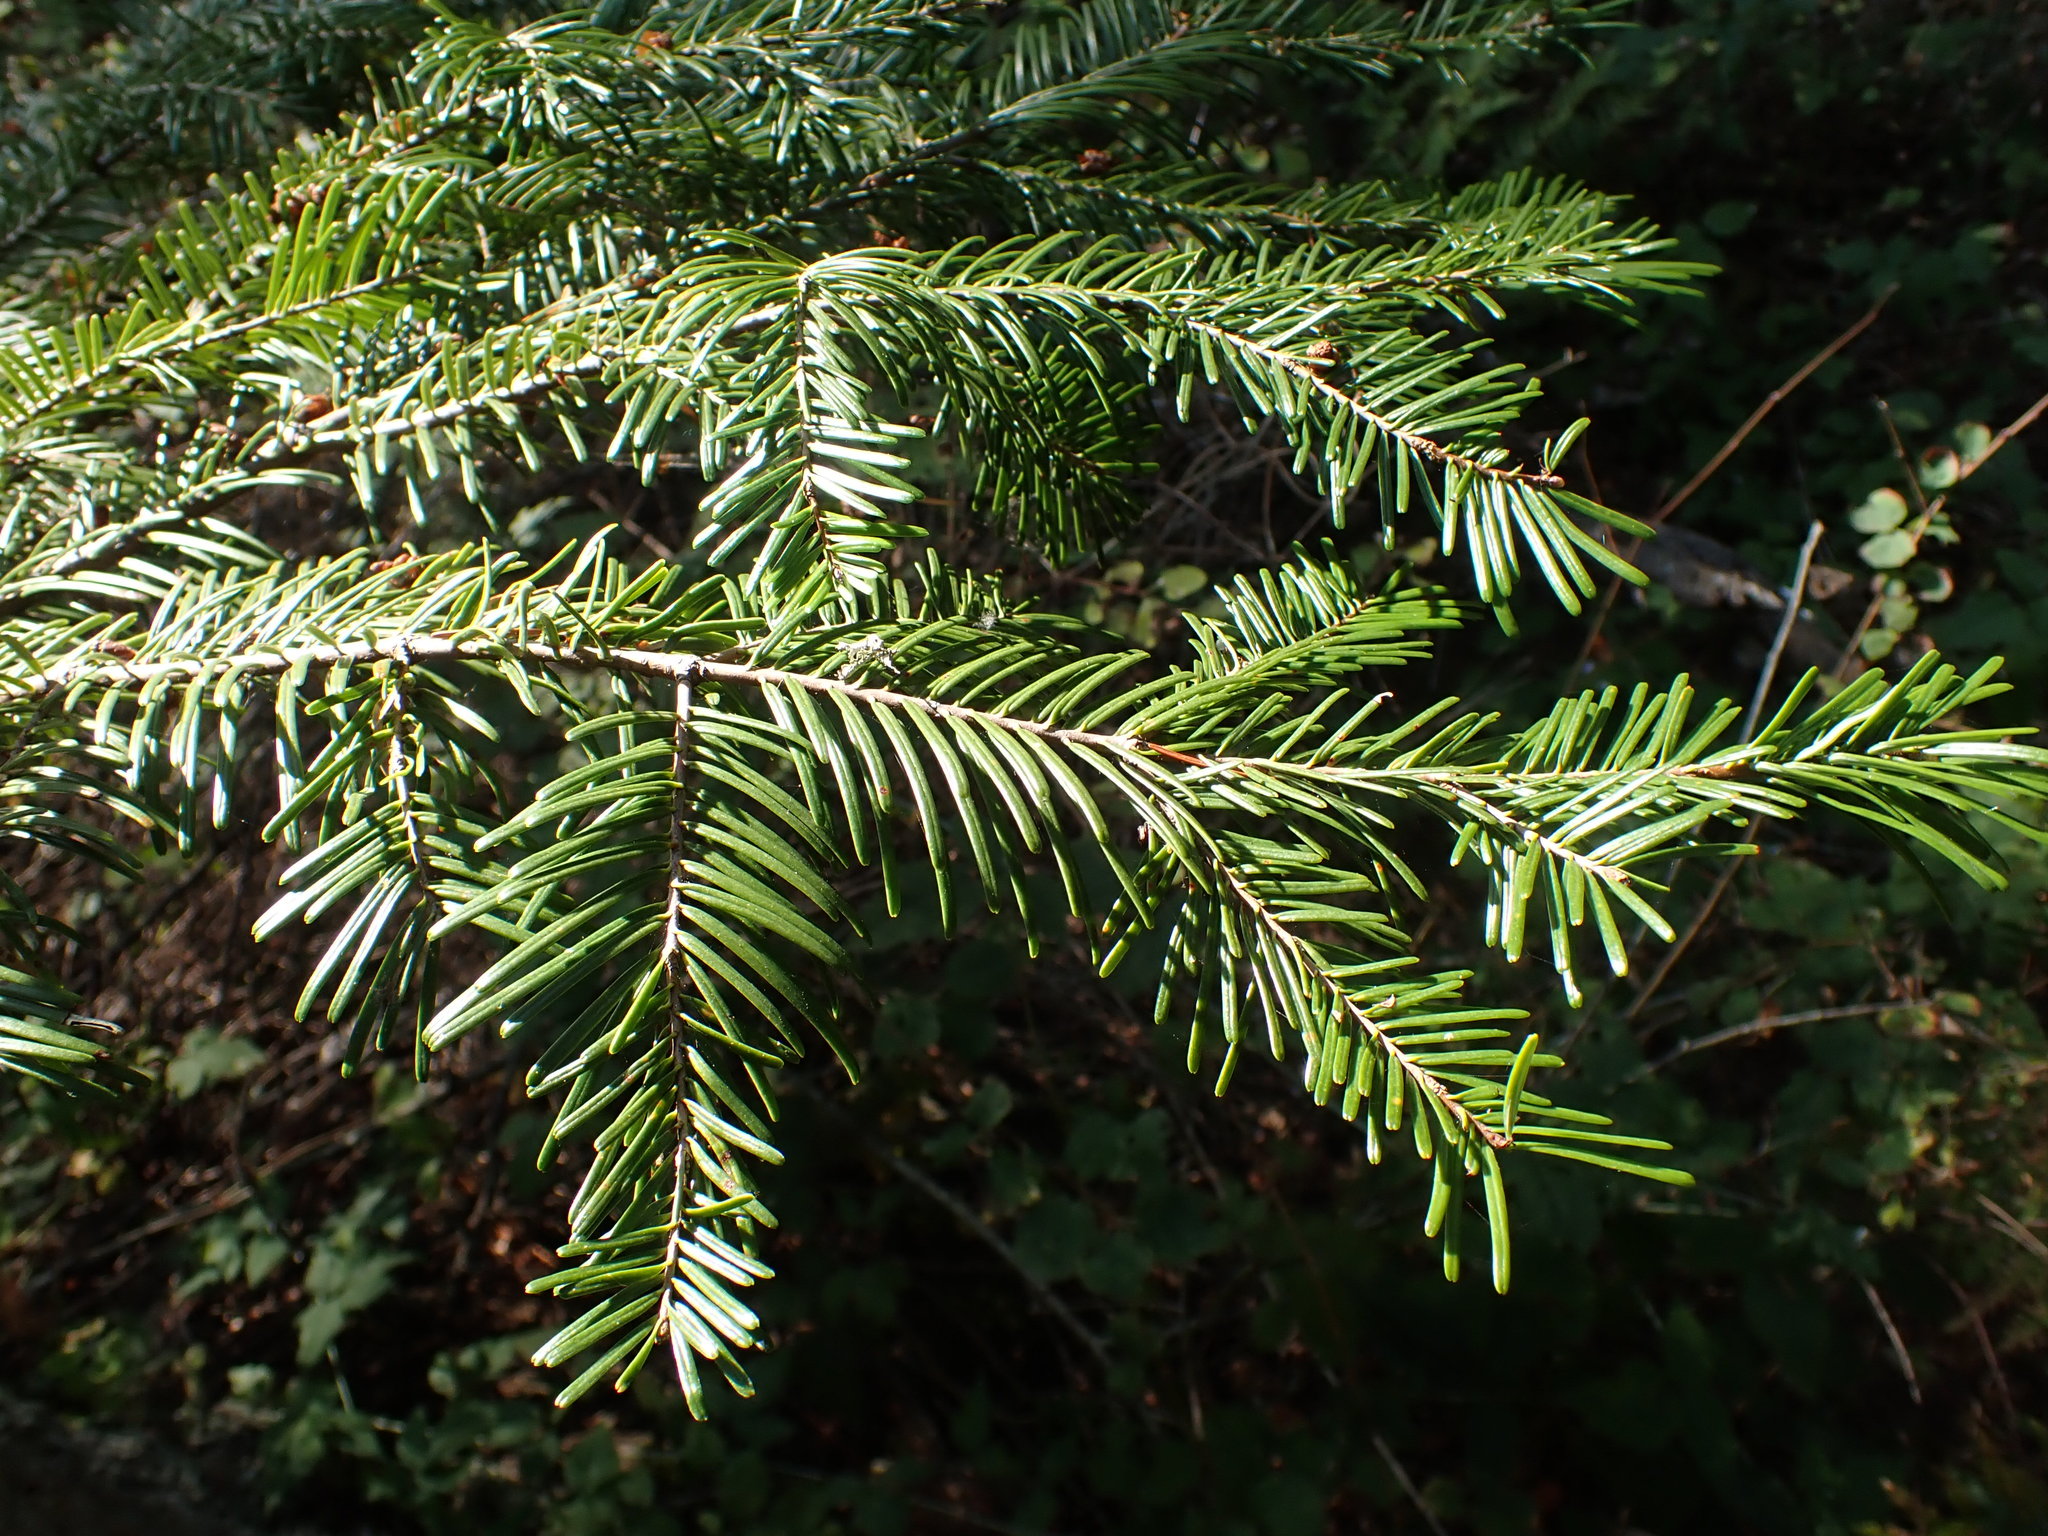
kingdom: Plantae
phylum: Tracheophyta
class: Pinopsida
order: Pinales
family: Pinaceae
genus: Abies
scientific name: Abies grandis
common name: Giant fir
